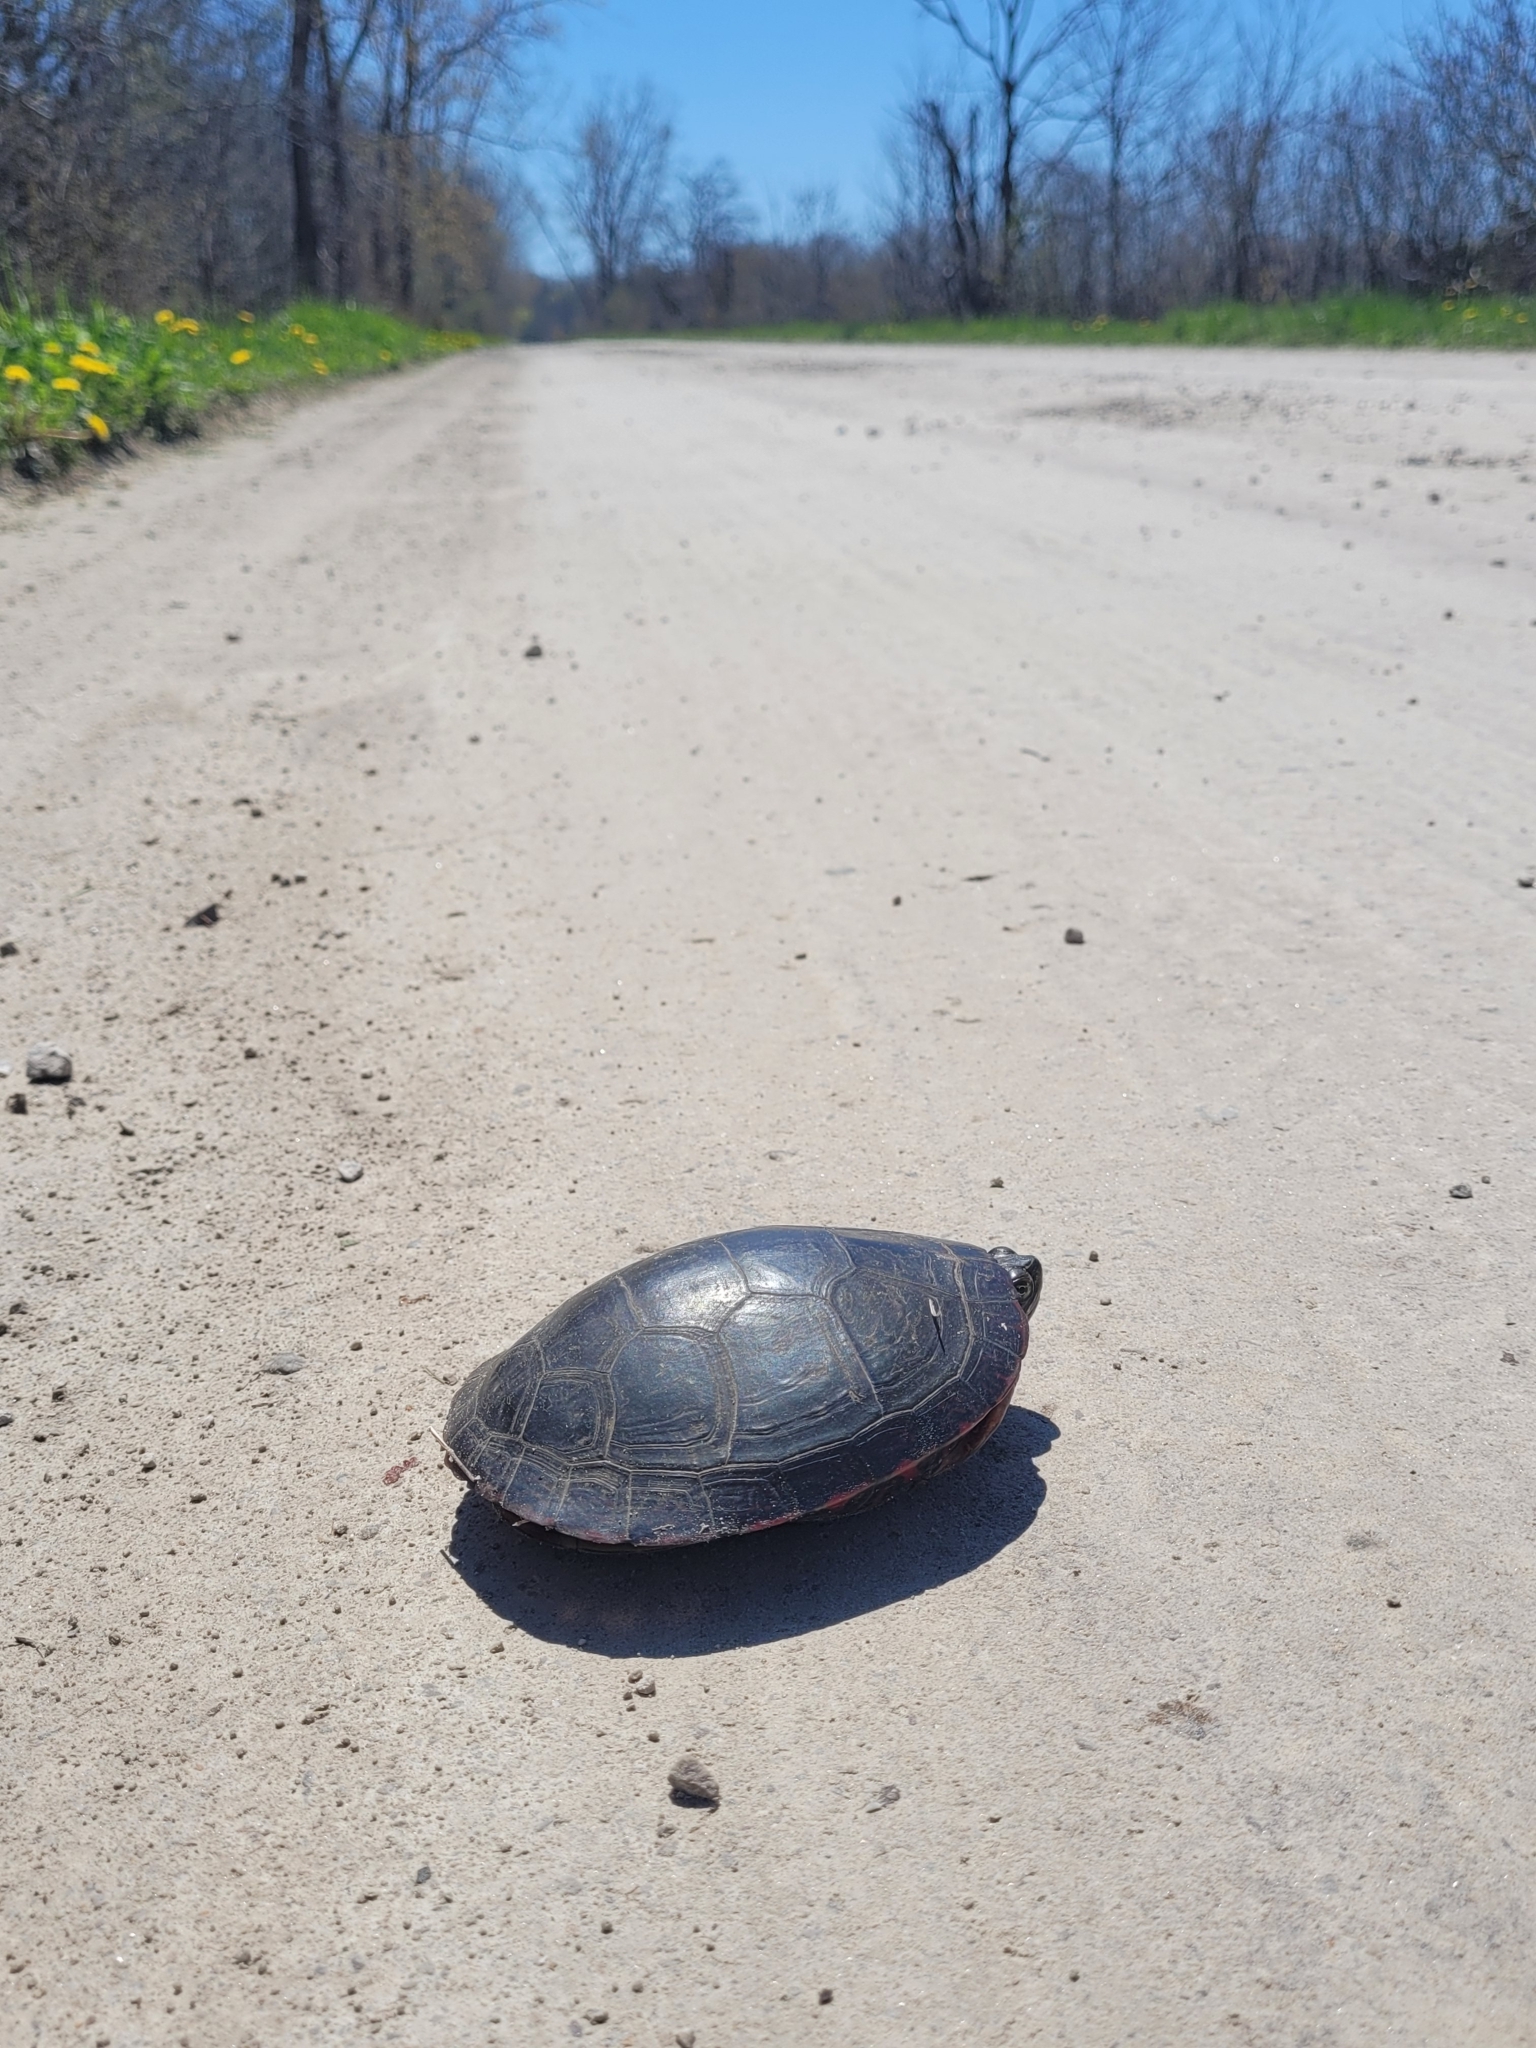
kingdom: Animalia
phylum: Chordata
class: Testudines
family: Emydidae
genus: Chrysemys
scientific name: Chrysemys picta
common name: Painted turtle
